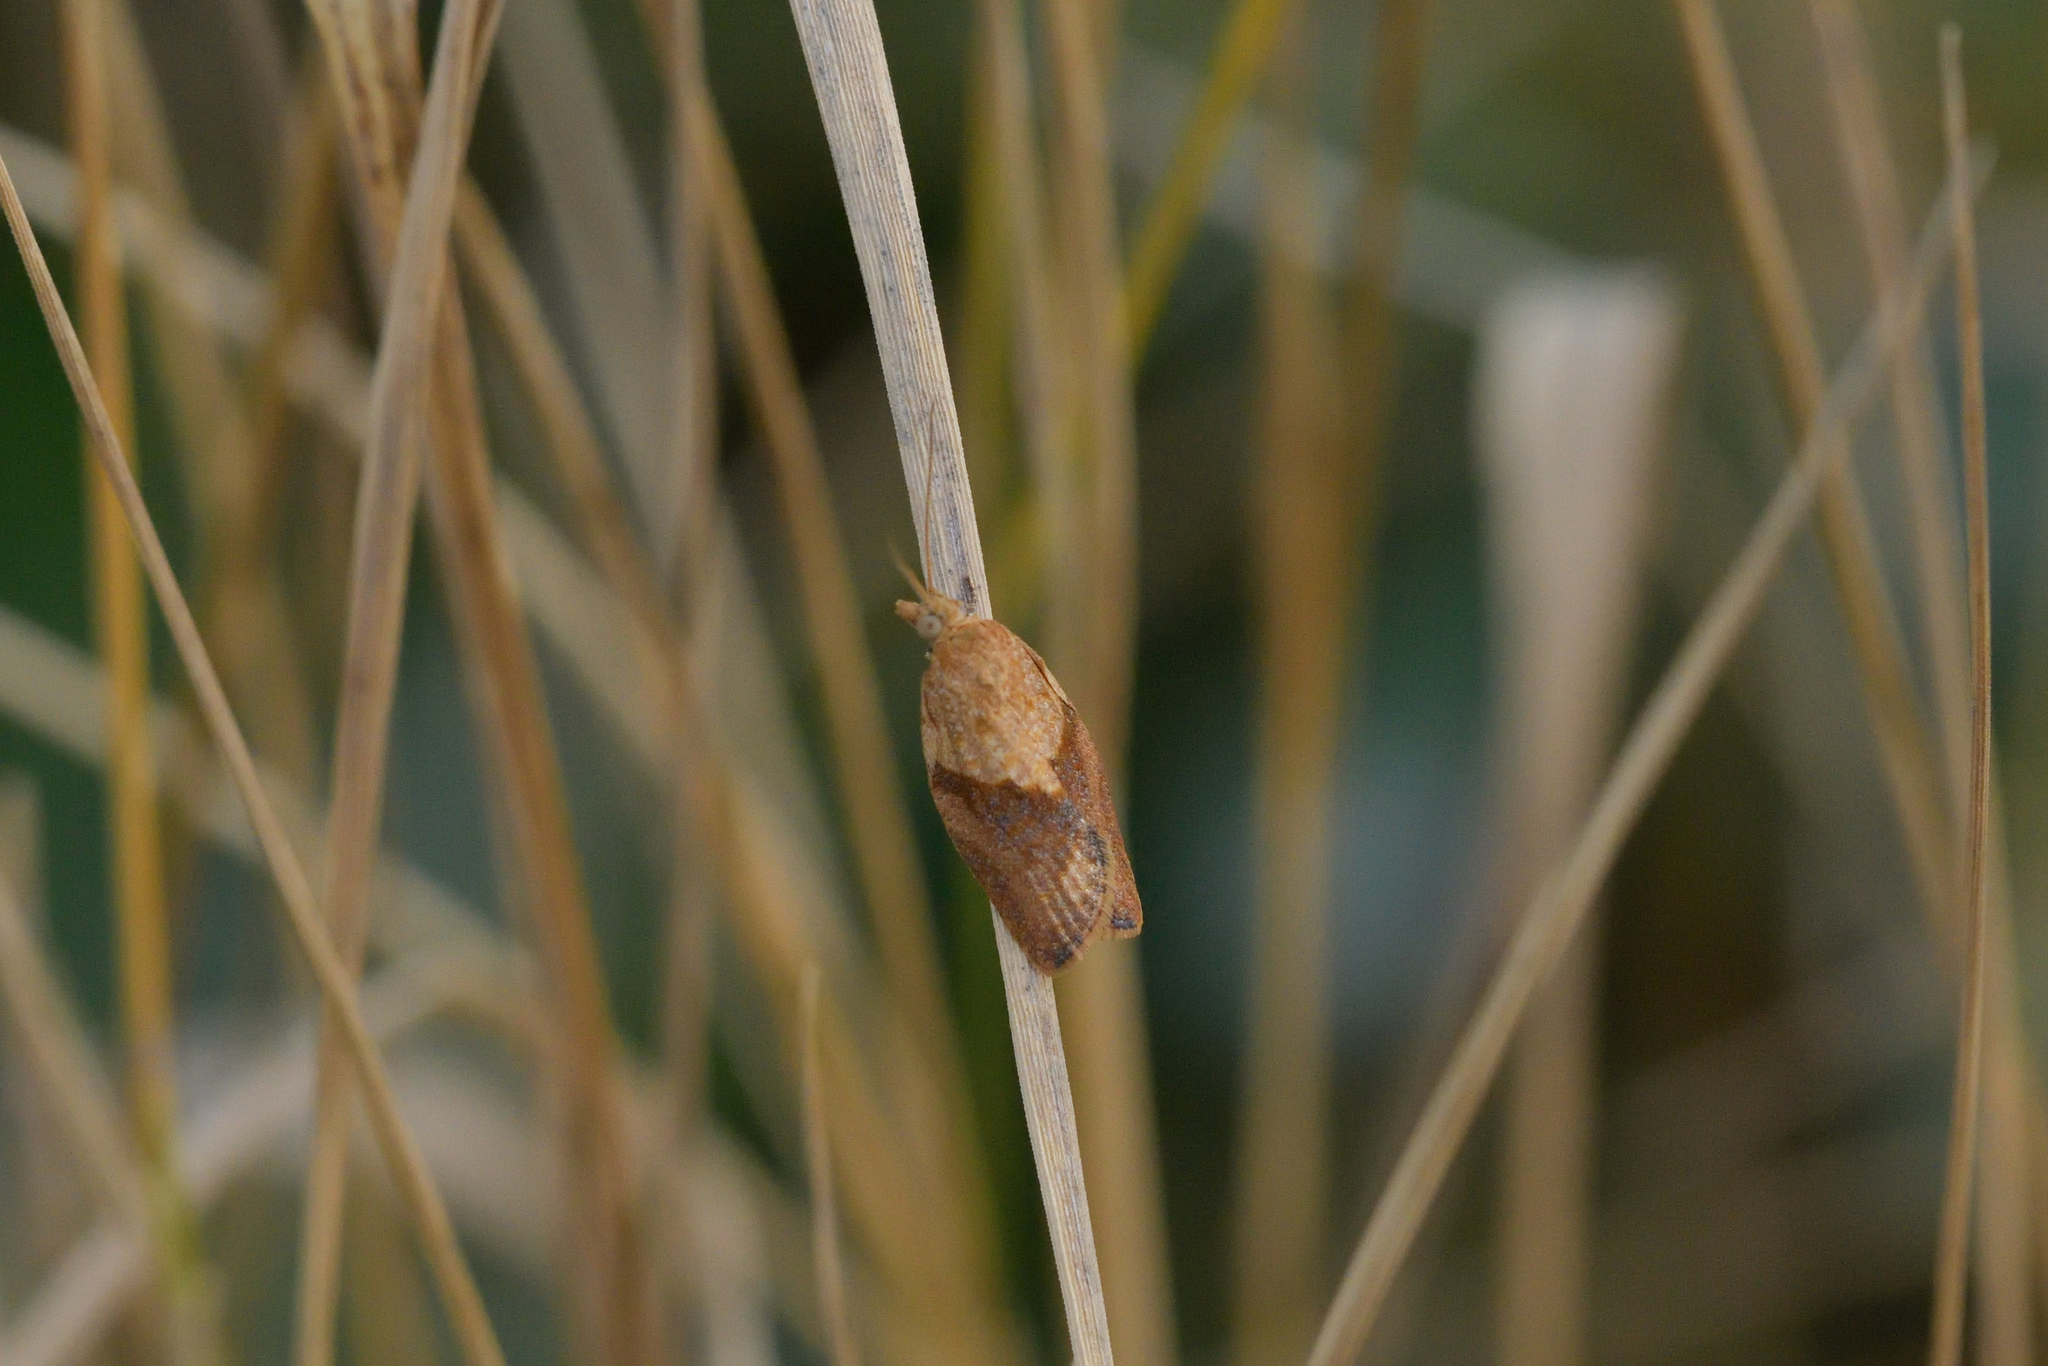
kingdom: Animalia
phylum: Arthropoda
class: Insecta
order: Lepidoptera
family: Tortricidae
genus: Epiphyas
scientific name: Epiphyas postvittana
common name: Light brown apple moth
